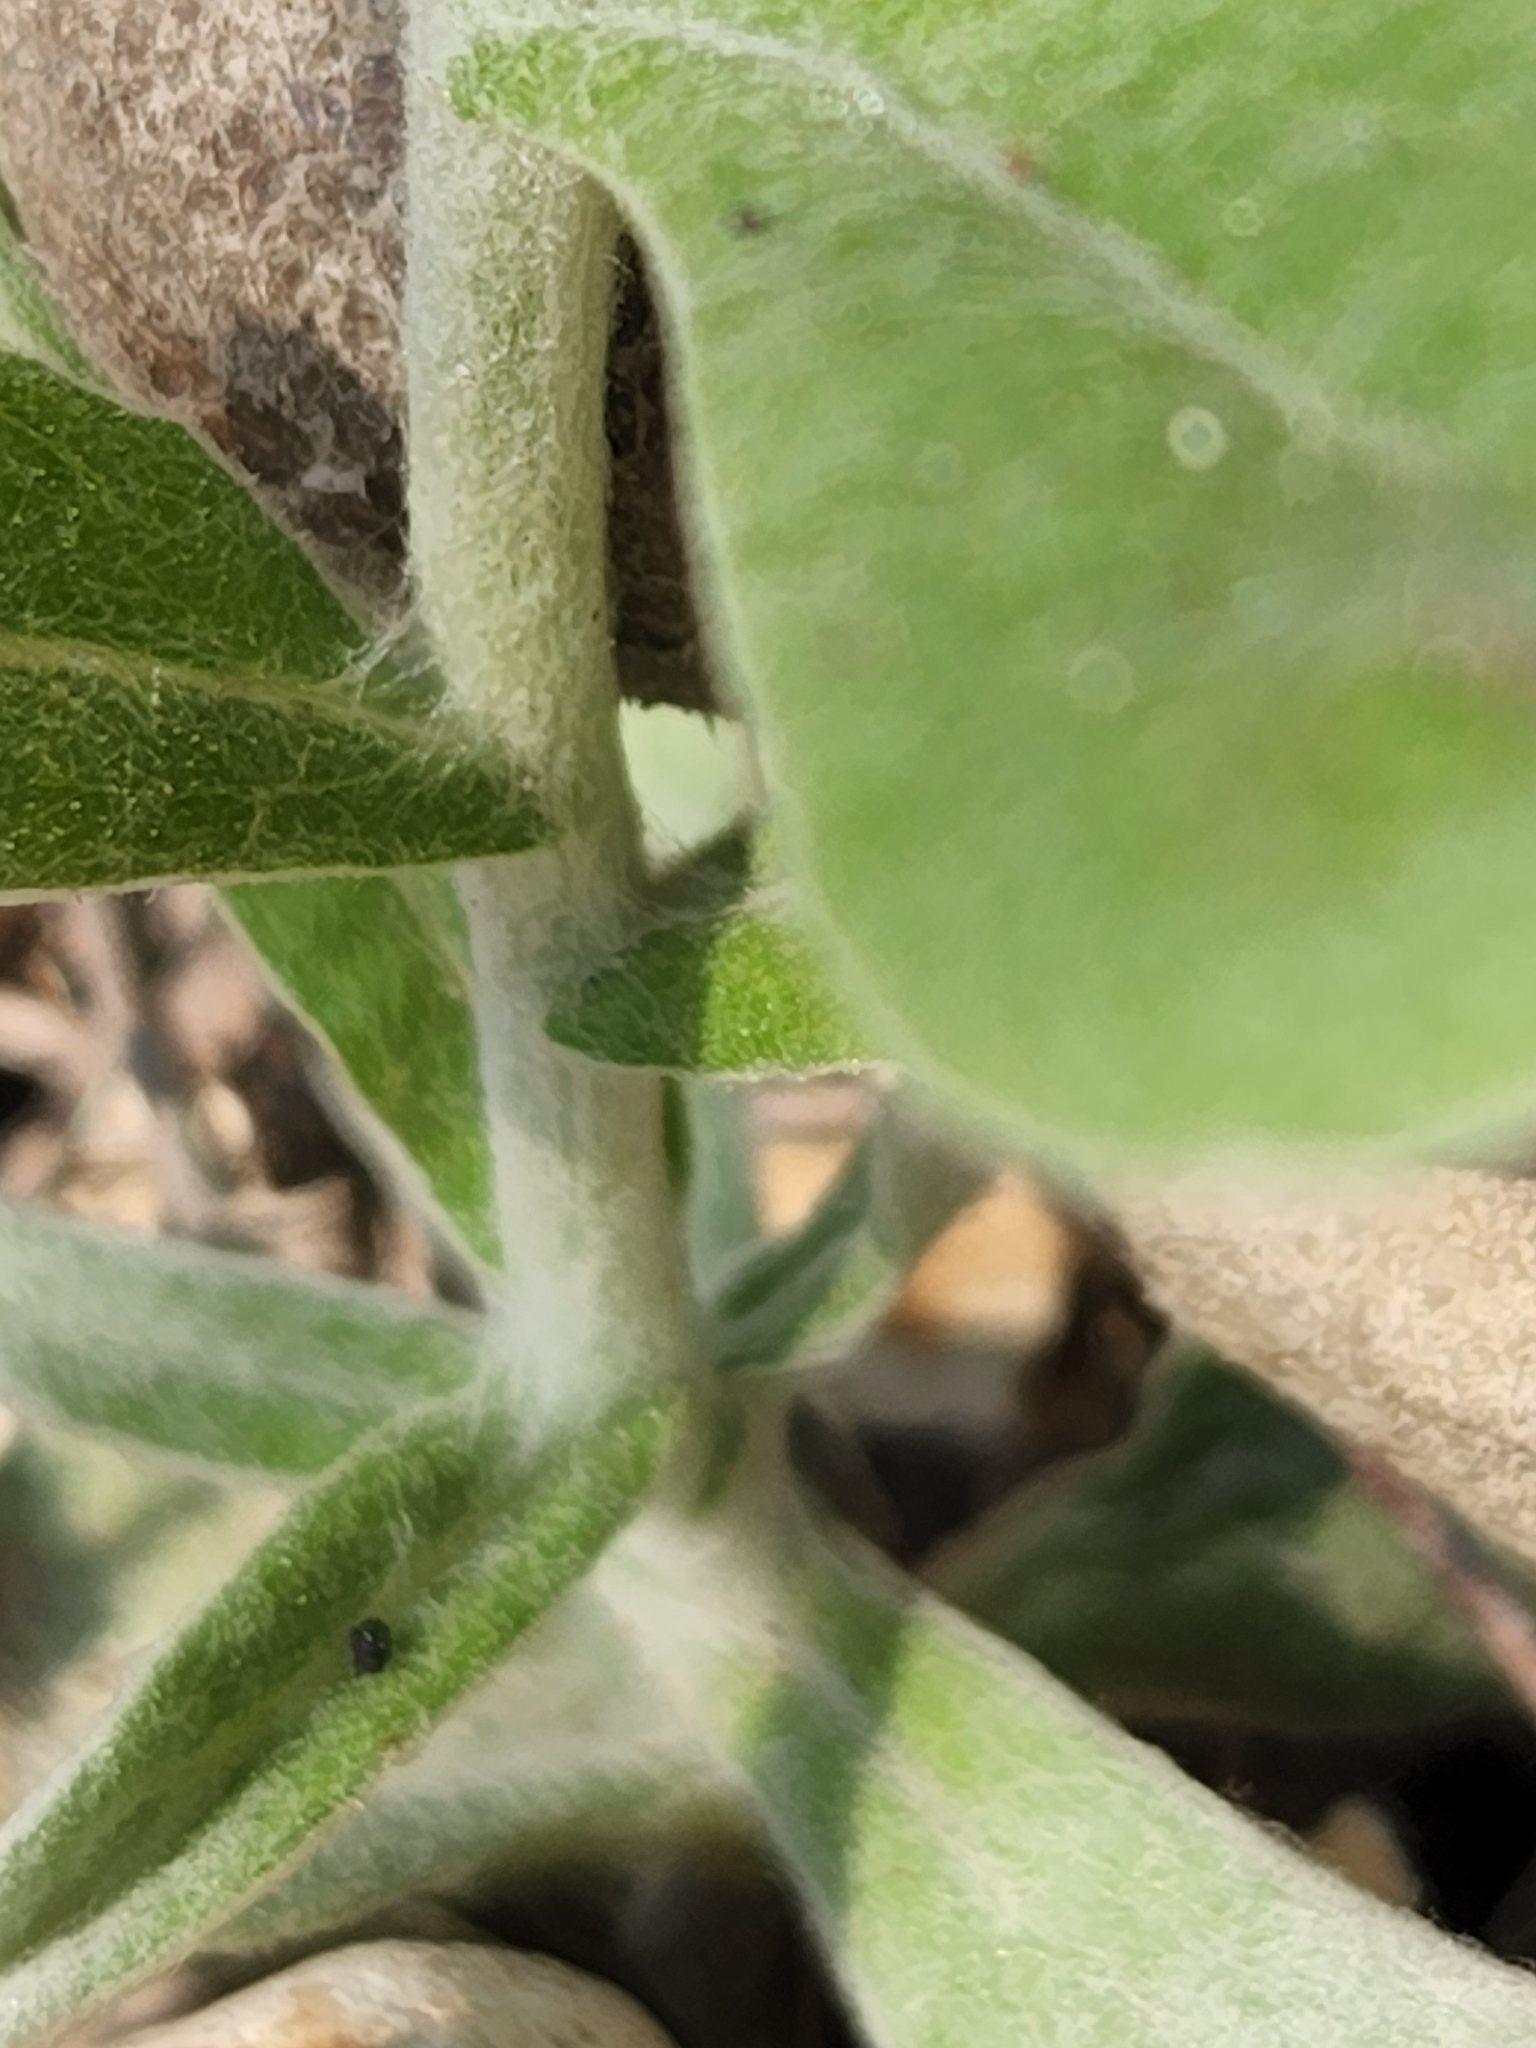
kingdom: Plantae
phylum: Tracheophyta
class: Magnoliopsida
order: Asterales
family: Asteraceae
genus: Pseudognaphalium
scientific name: Pseudognaphalium obtusifolium
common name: Eastern rabbit-tobacco
